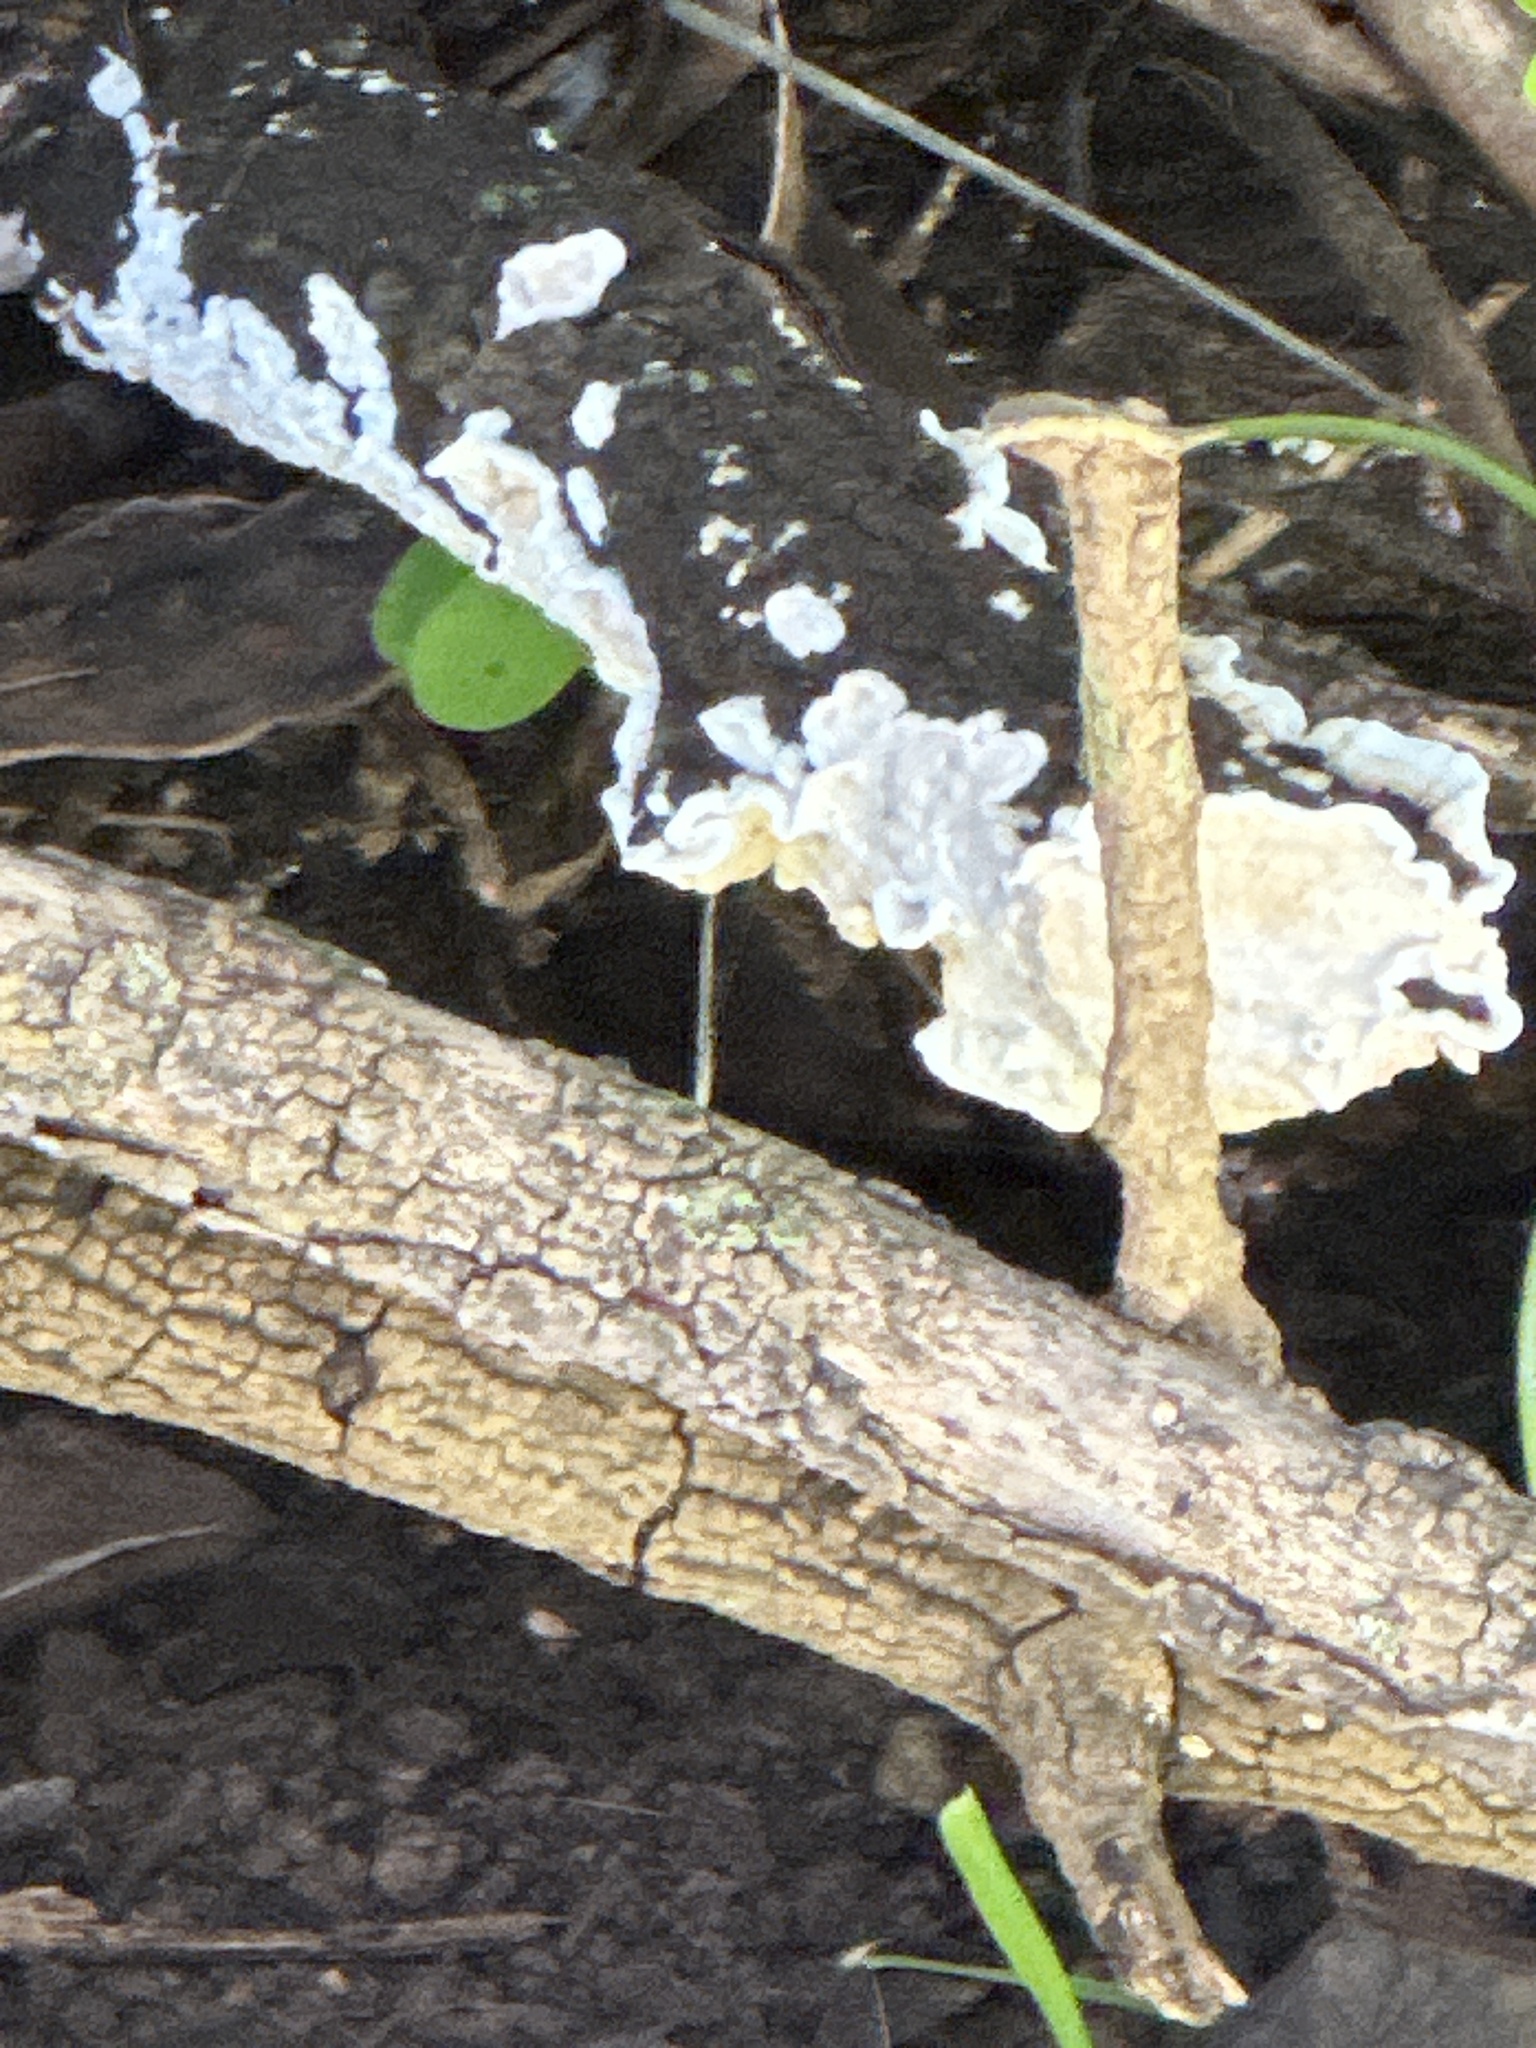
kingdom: Fungi
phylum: Basidiomycota
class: Agaricomycetes
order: Polyporales
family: Irpicaceae
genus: Byssomerulius
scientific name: Byssomerulius corium
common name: Netted crust
